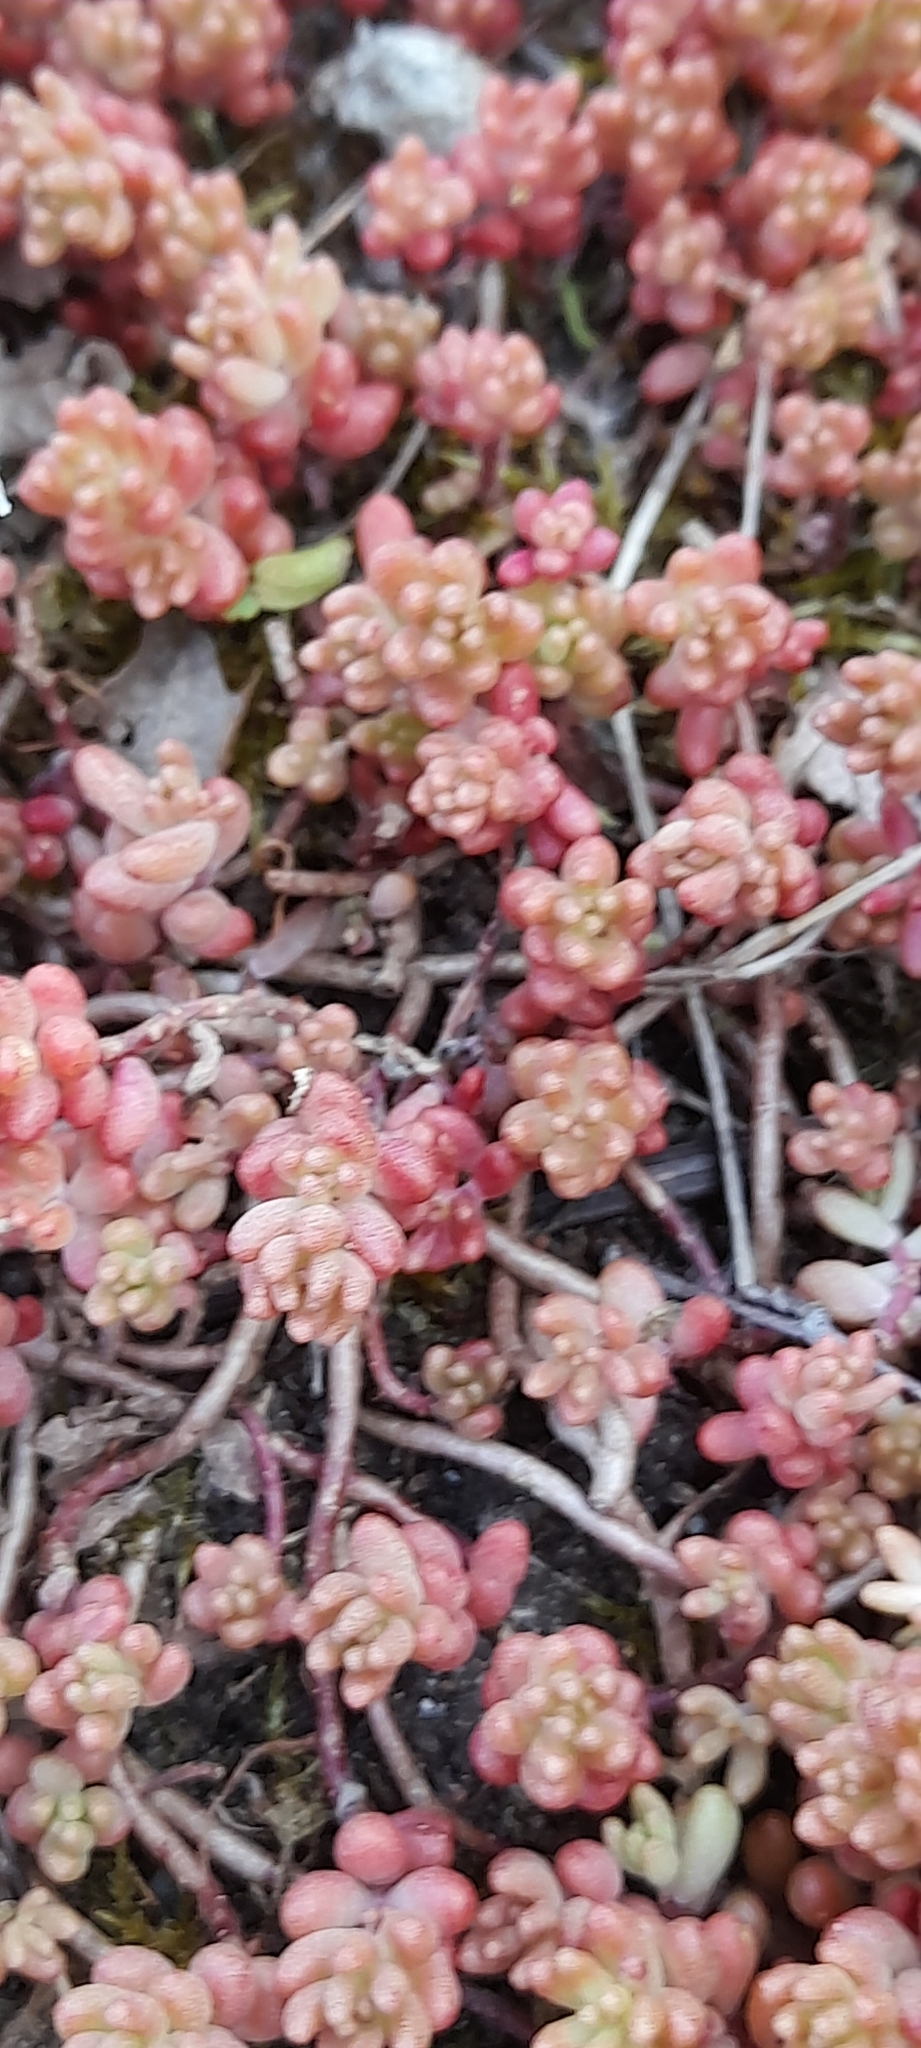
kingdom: Plantae
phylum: Tracheophyta
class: Magnoliopsida
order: Saxifragales
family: Crassulaceae
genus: Sedum
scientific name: Sedum album
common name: White stonecrop
